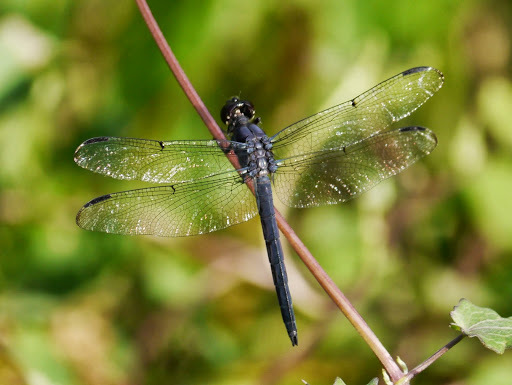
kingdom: Animalia
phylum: Arthropoda
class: Insecta
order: Odonata
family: Libellulidae
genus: Libellula
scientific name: Libellula incesta
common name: Slaty skimmer
